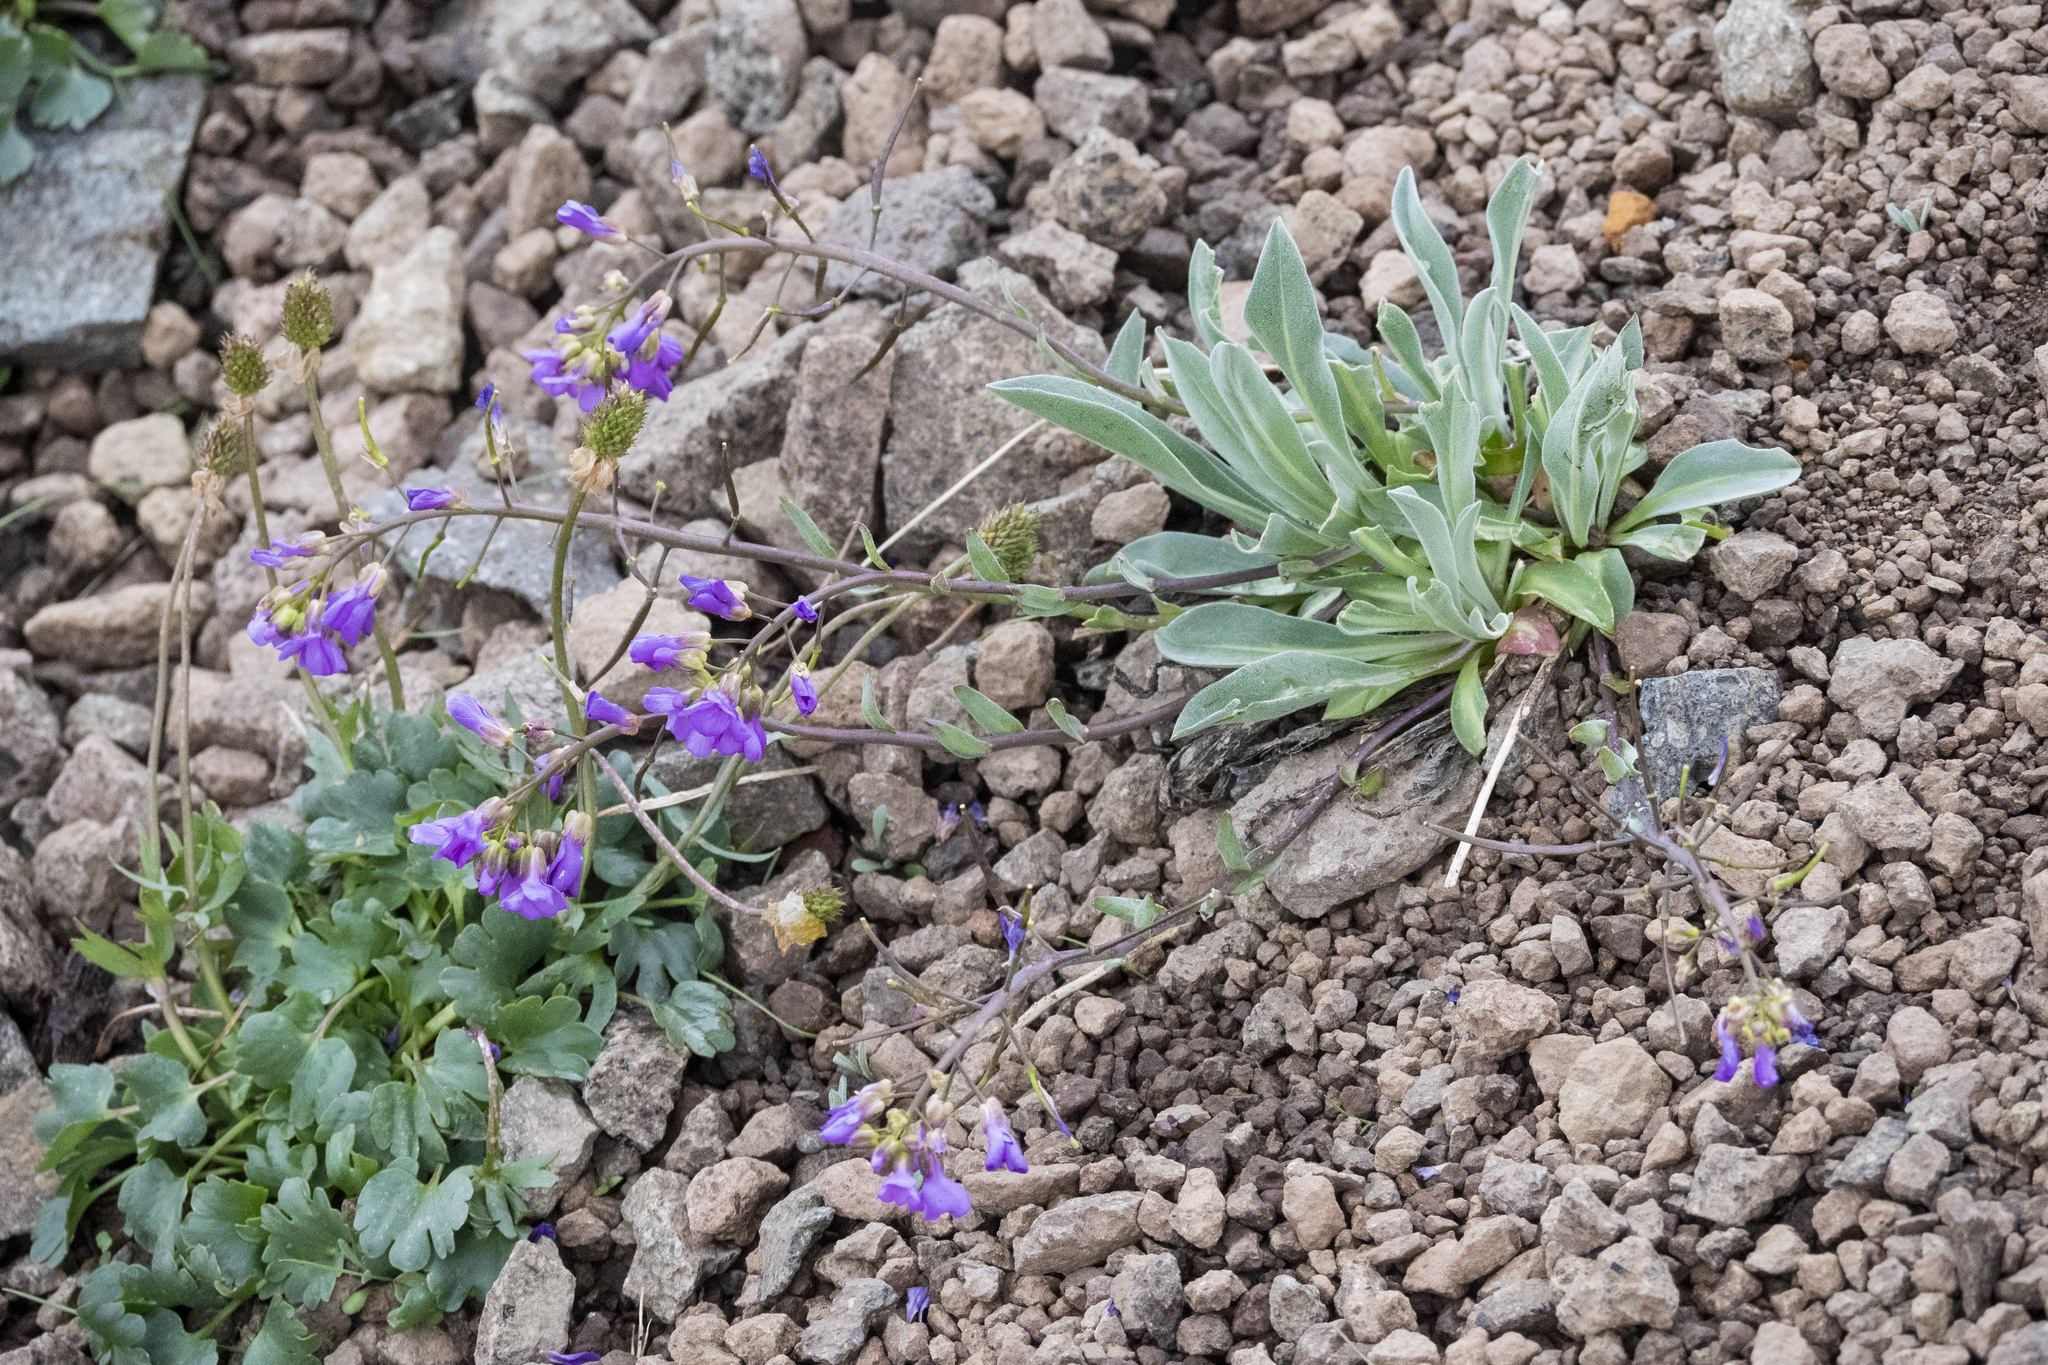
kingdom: Plantae
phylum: Tracheophyta
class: Magnoliopsida
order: Brassicales
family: Brassicaceae
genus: Phoenicaulis
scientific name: Phoenicaulis cheiranthoides
